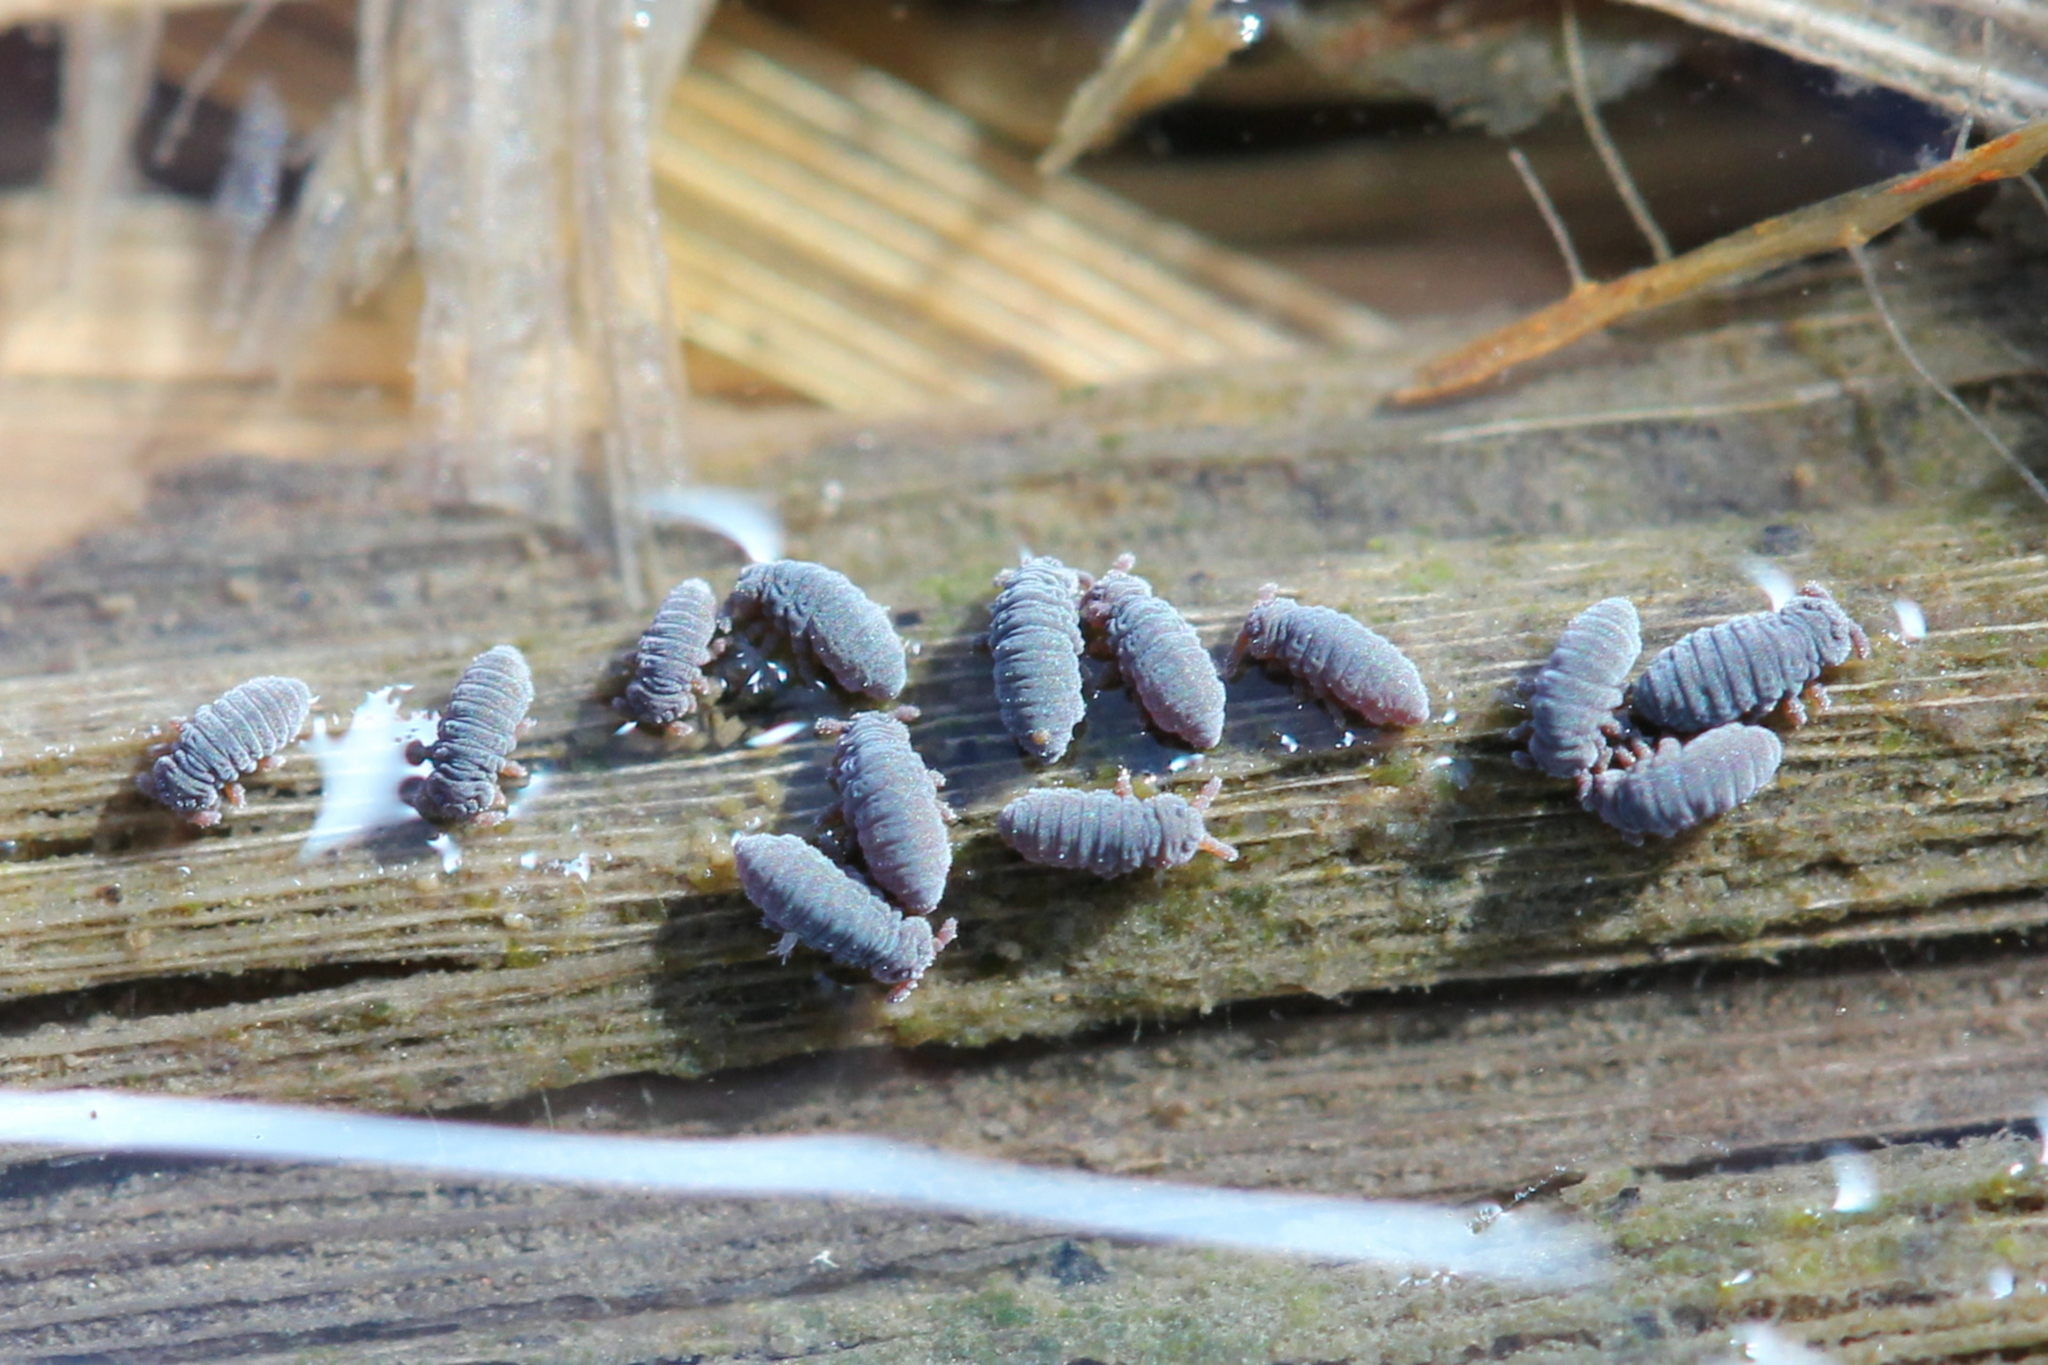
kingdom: Animalia
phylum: Arthropoda
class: Collembola
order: Poduromorpha
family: Poduridae
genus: Podura
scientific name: Podura aquatica
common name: Water springtail
